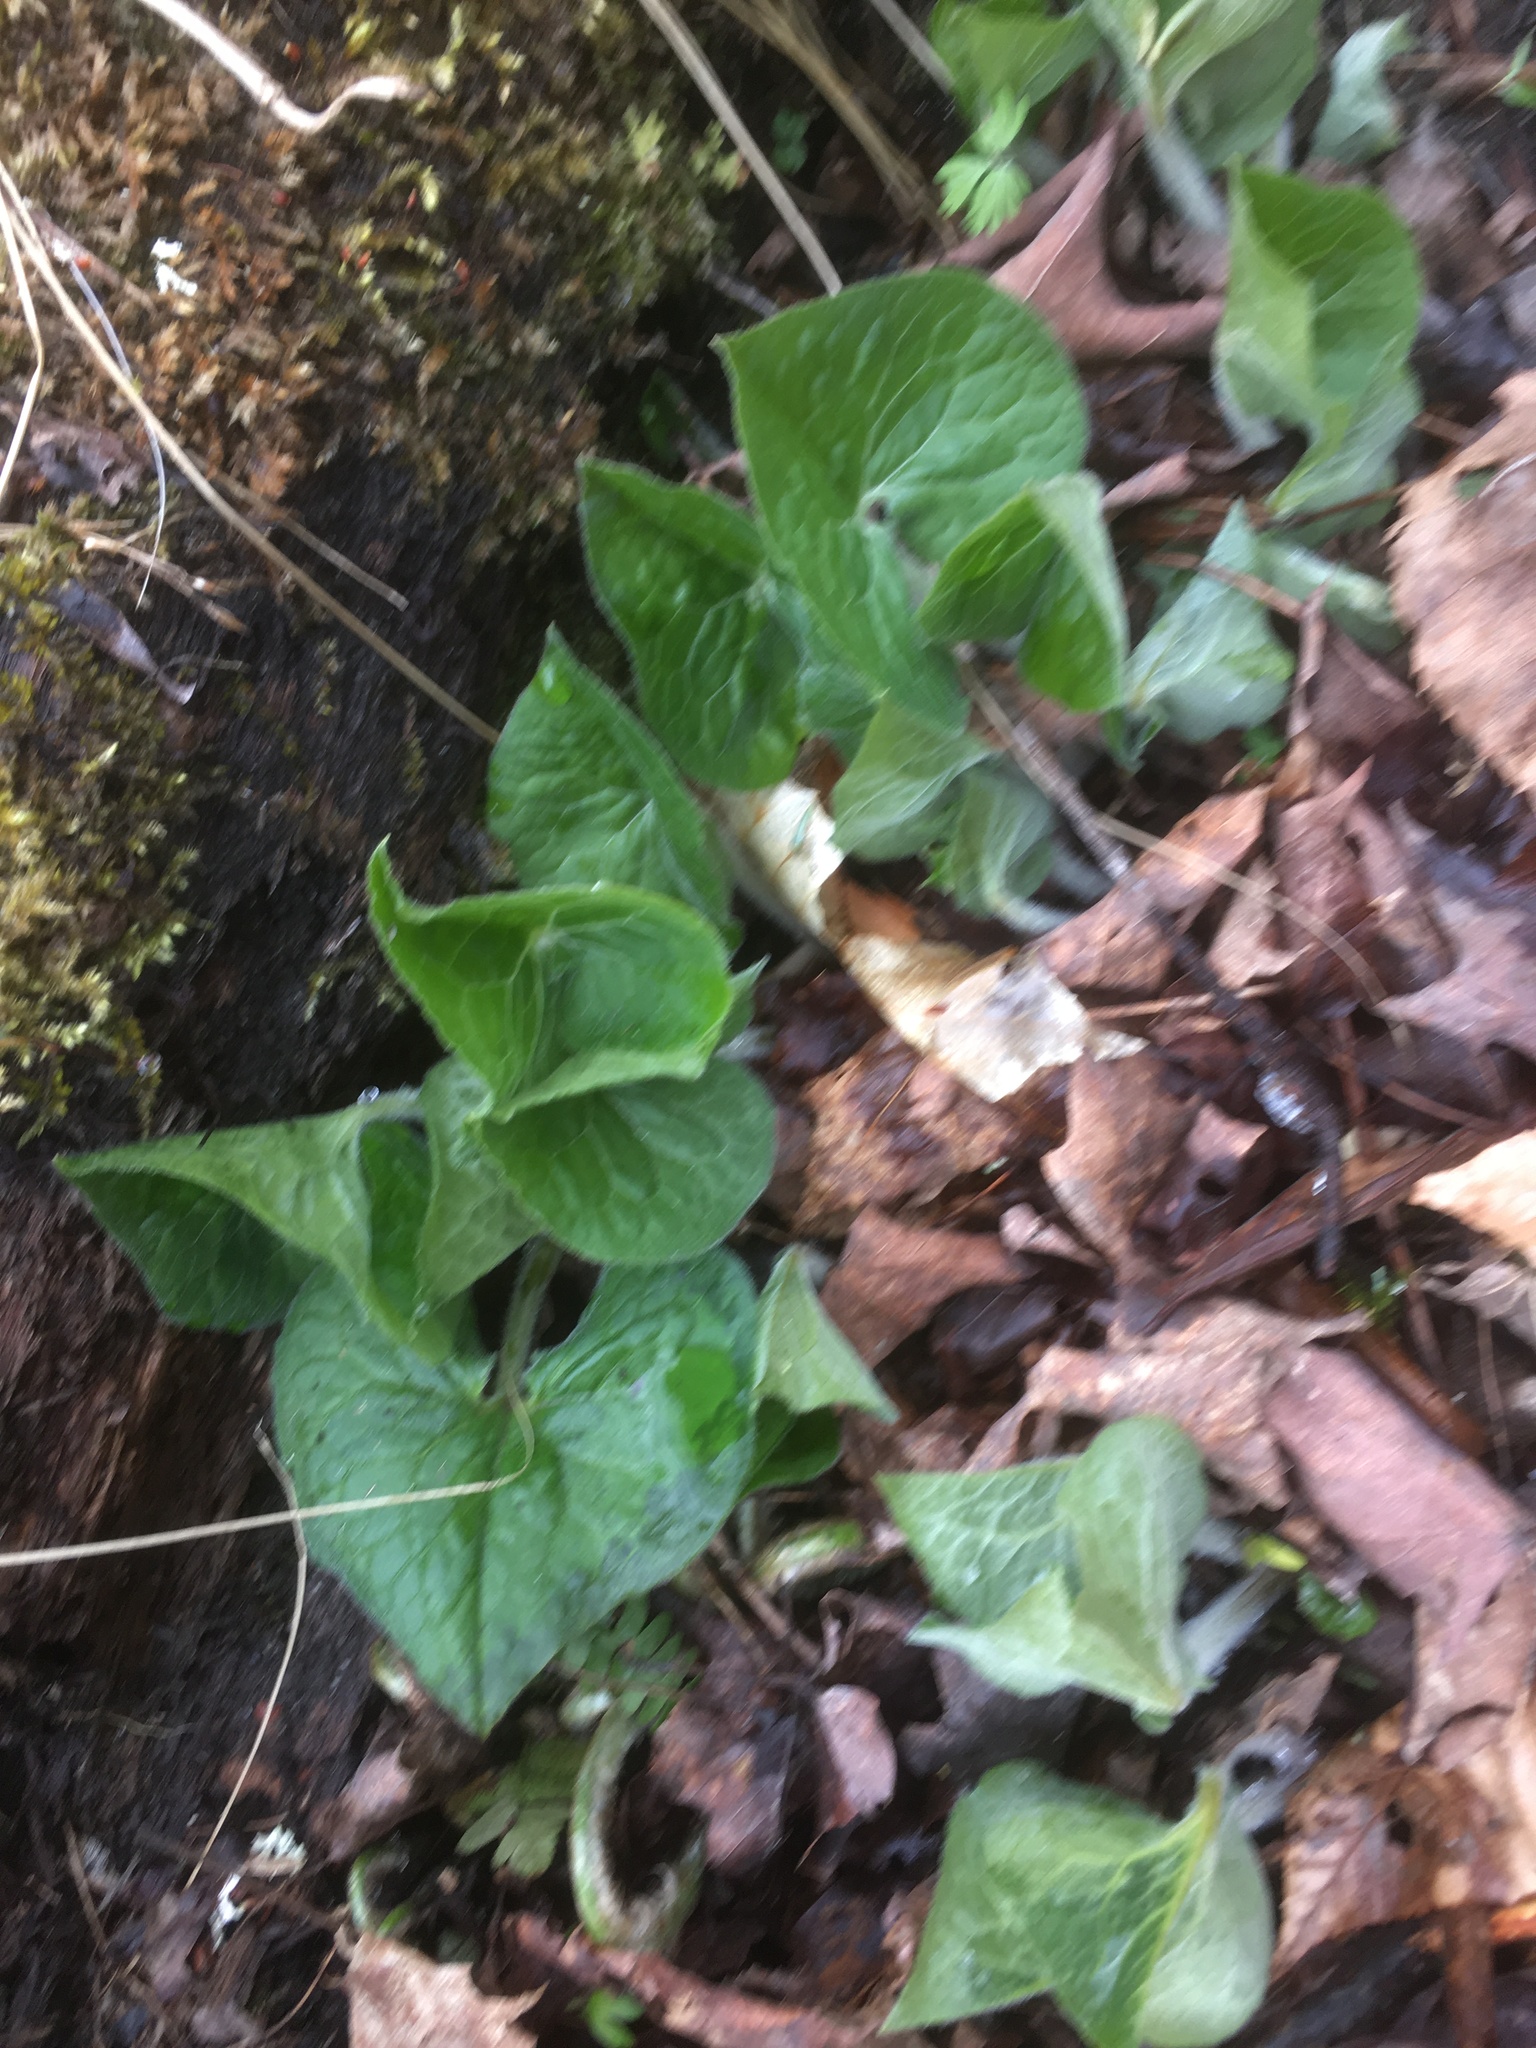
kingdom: Plantae
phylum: Tracheophyta
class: Magnoliopsida
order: Piperales
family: Aristolochiaceae
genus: Asarum
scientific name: Asarum canadense
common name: Wild ginger
